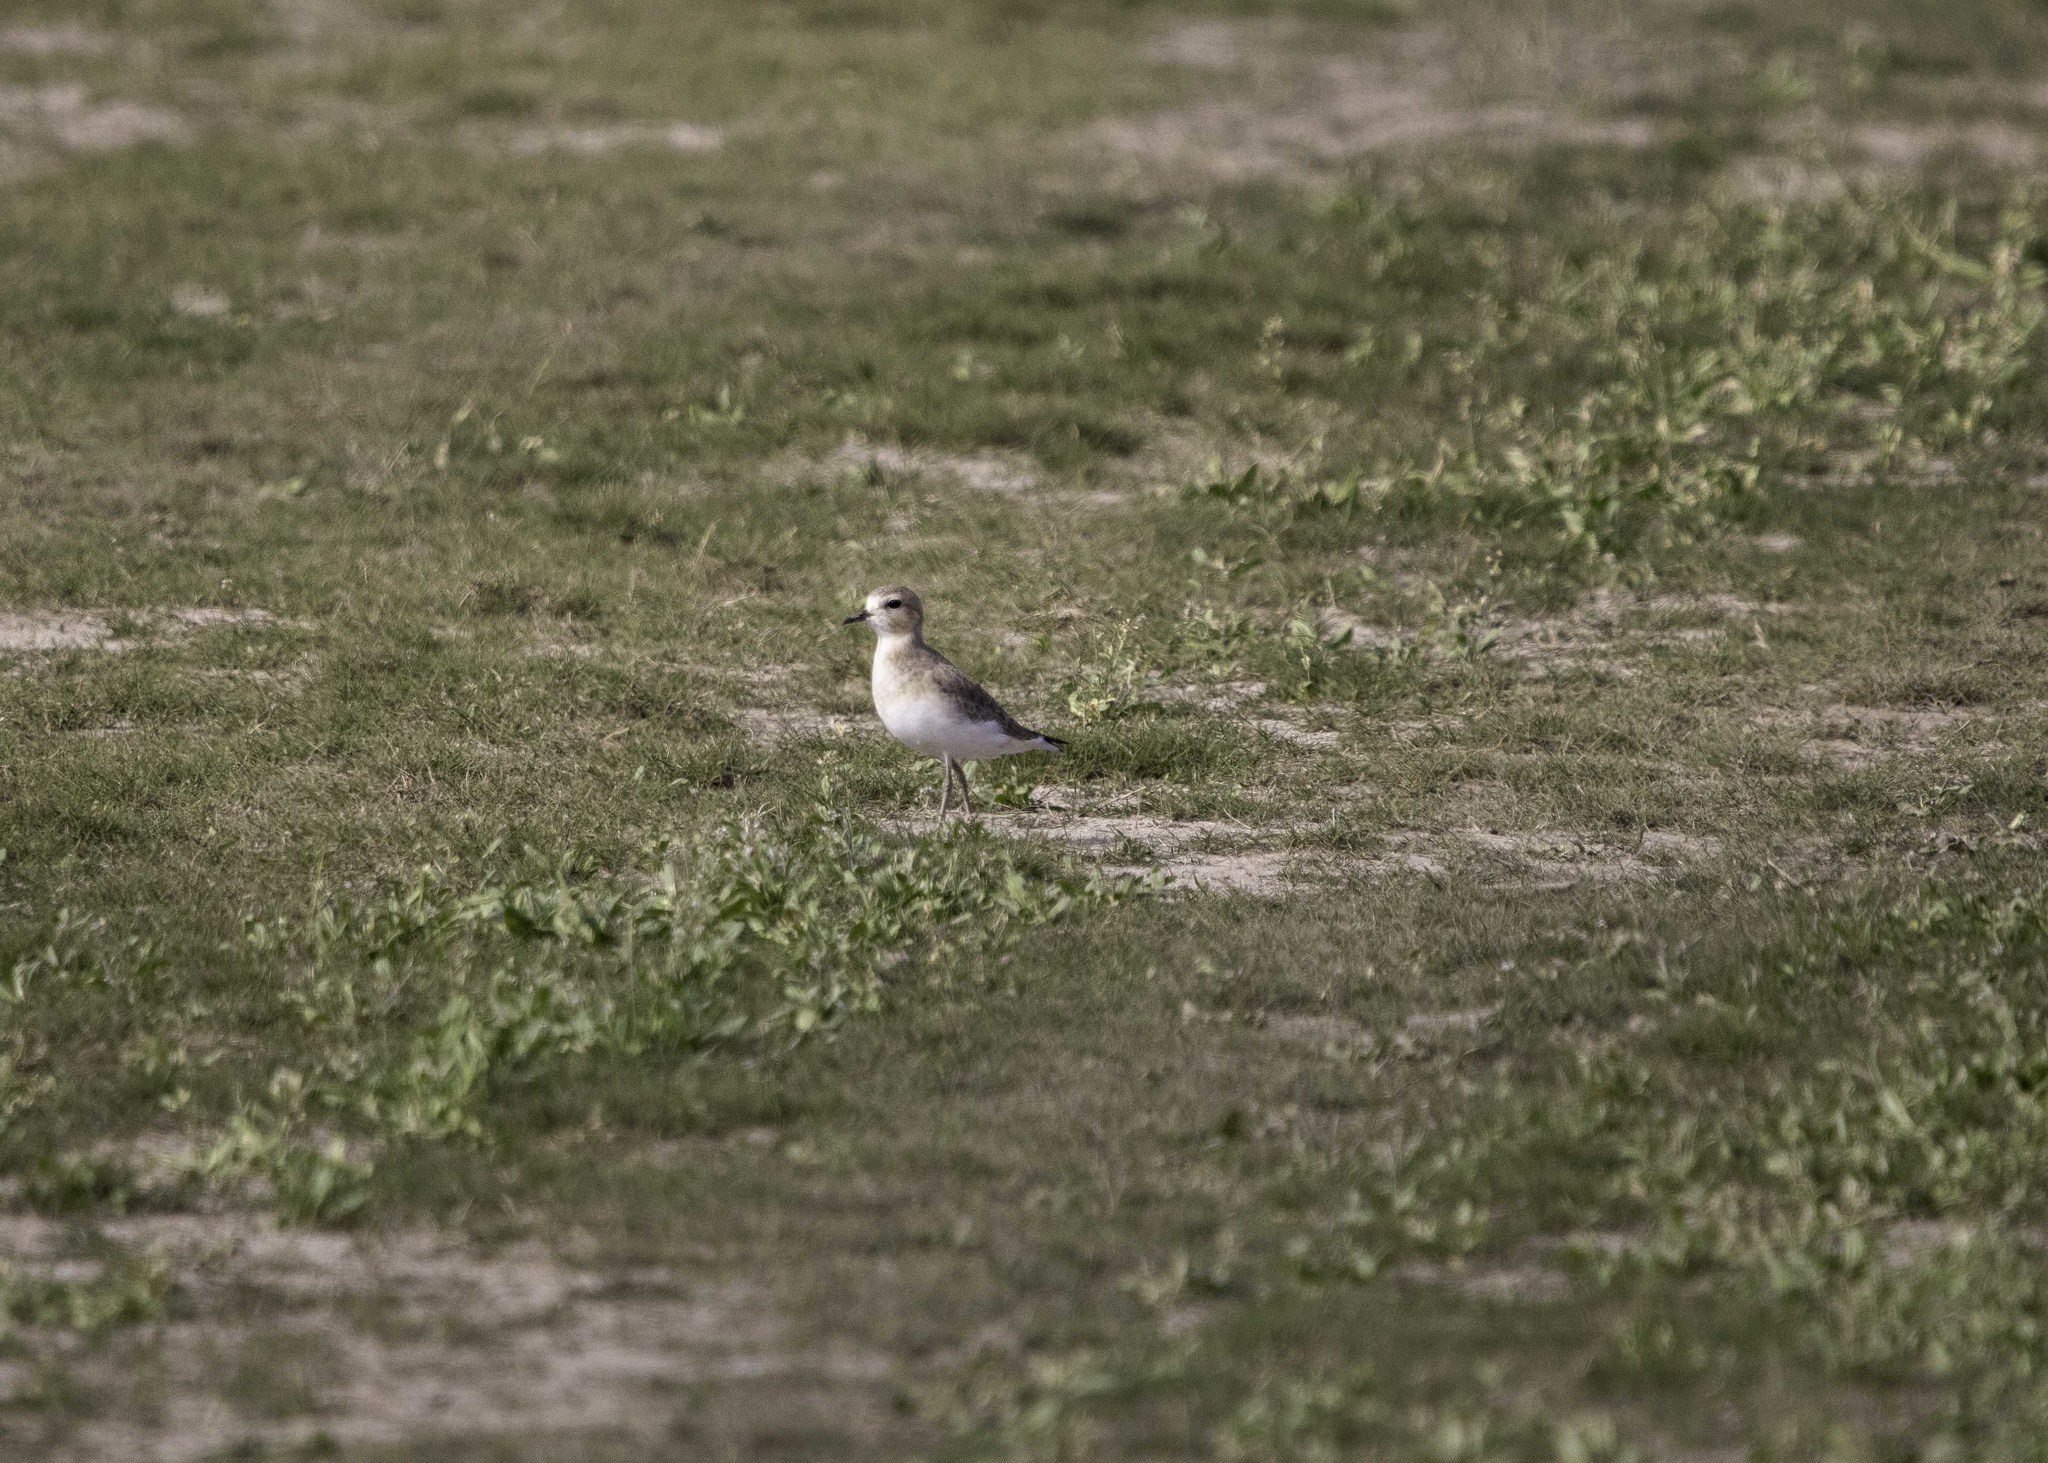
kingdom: Animalia
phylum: Chordata
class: Aves
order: Charadriiformes
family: Charadriidae
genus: Anarhynchus
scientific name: Anarhynchus
